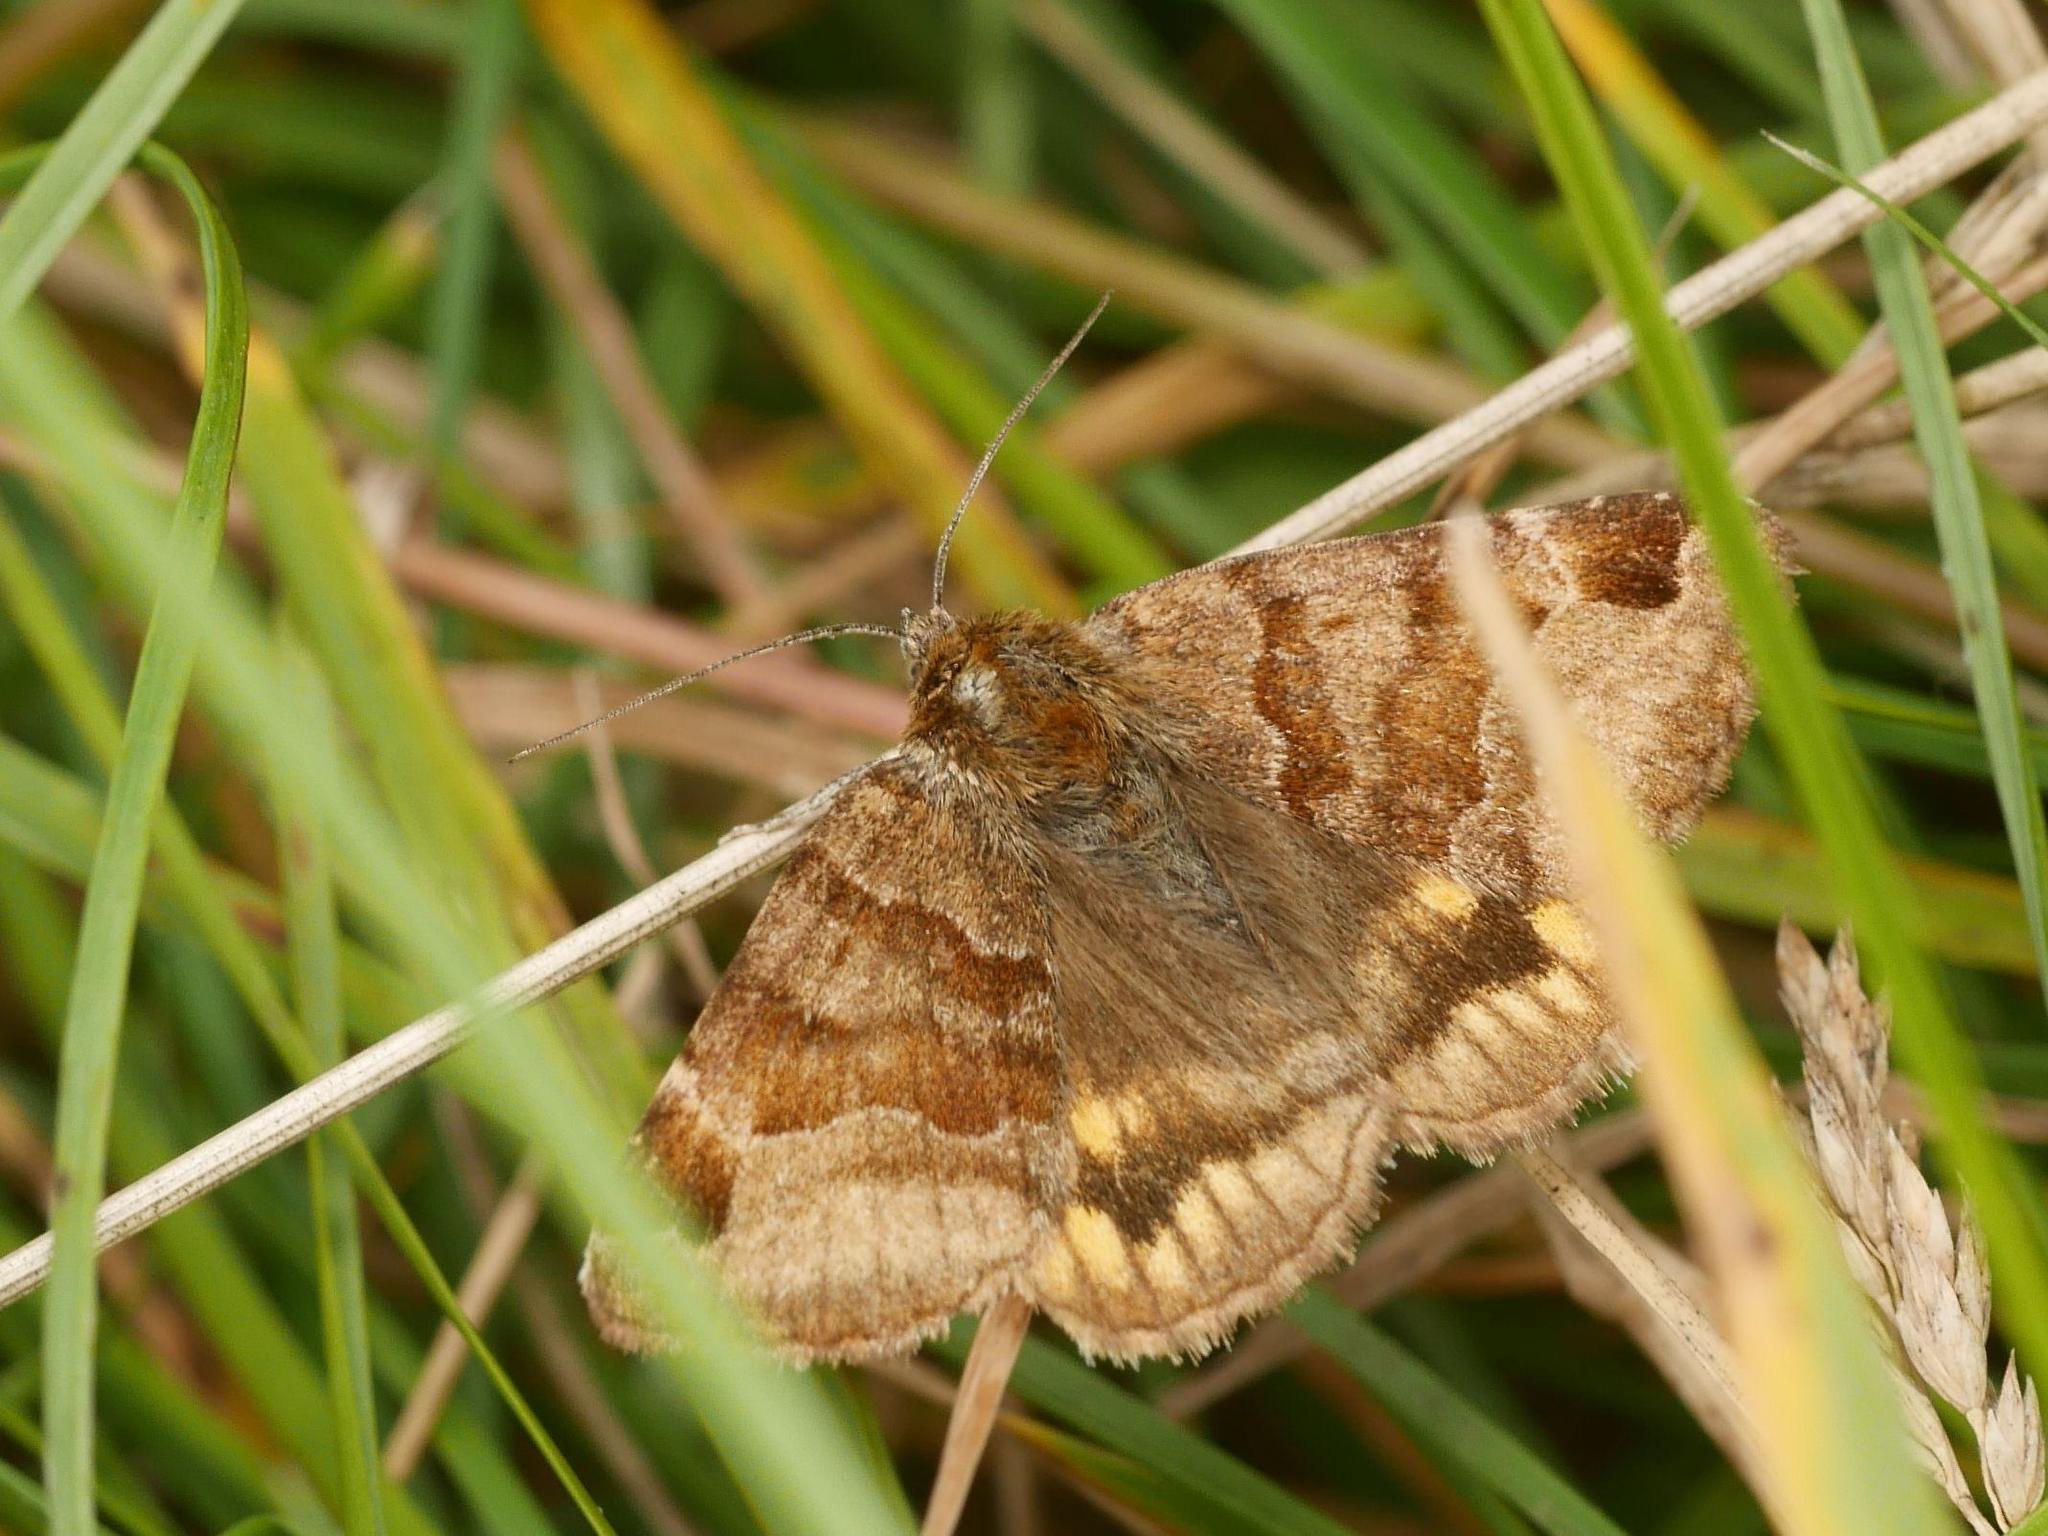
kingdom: Animalia
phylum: Arthropoda
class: Insecta
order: Lepidoptera
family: Erebidae
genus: Euclidia
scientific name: Euclidia glyphica
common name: Burnet companion
